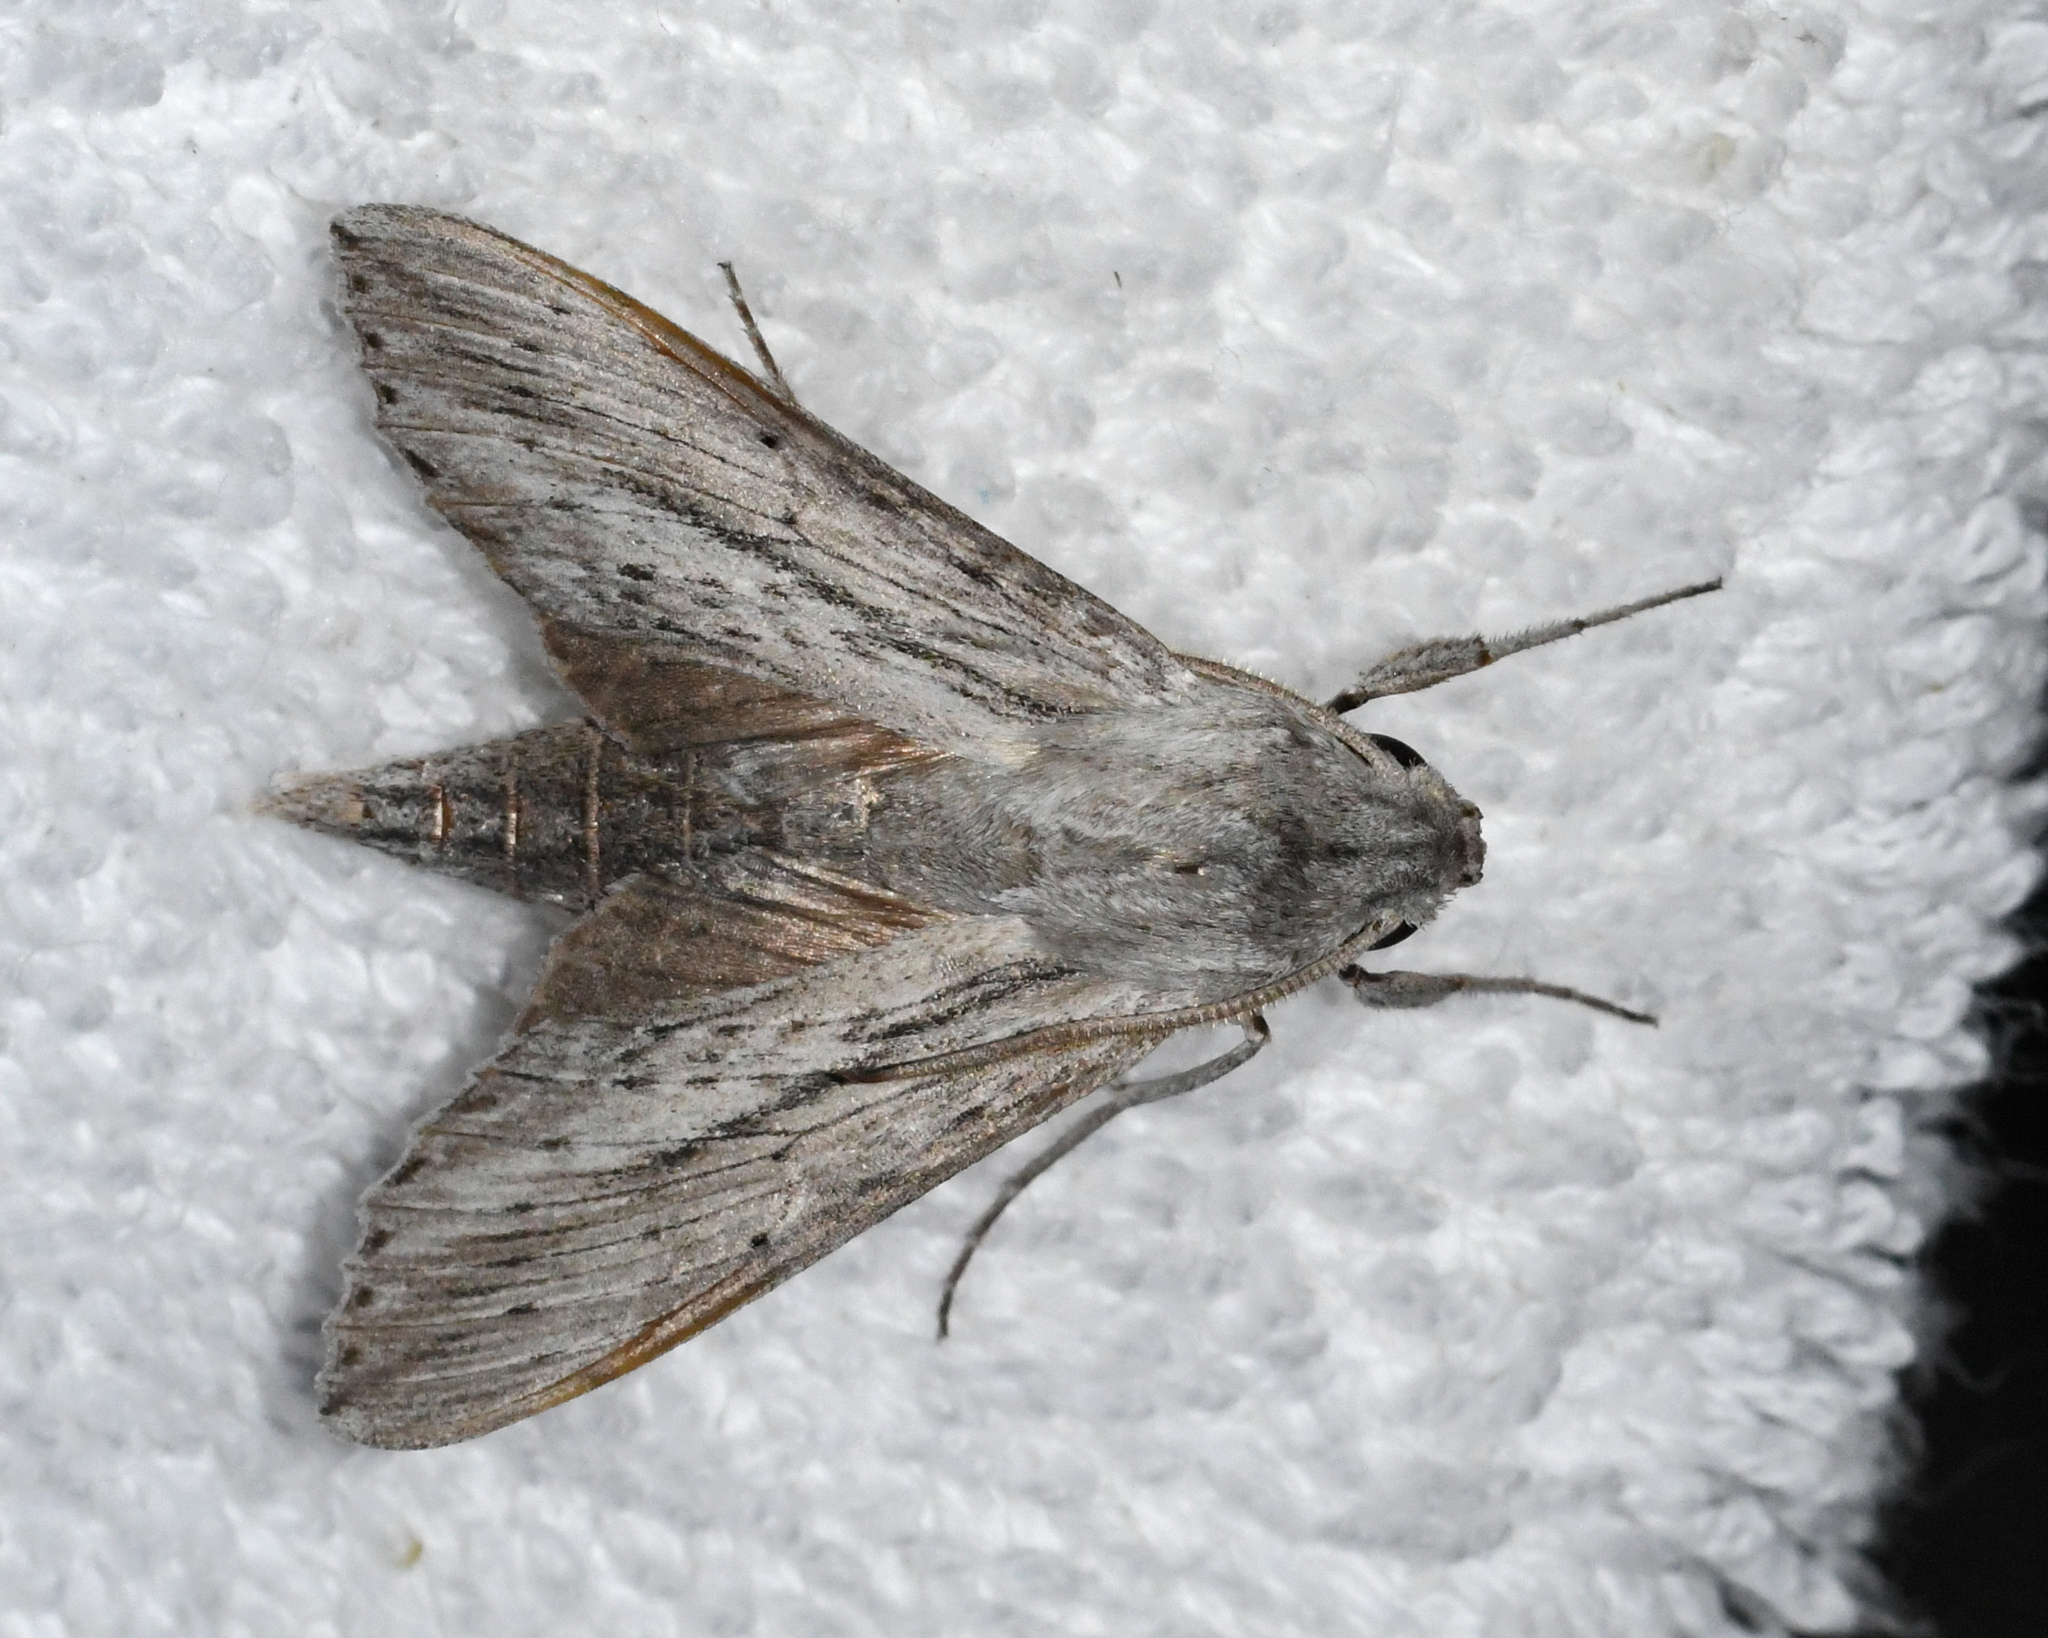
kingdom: Animalia
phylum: Arthropoda
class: Insecta
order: Lepidoptera
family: Sphingidae
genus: Erinnyis
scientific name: Erinnyis guttularis
